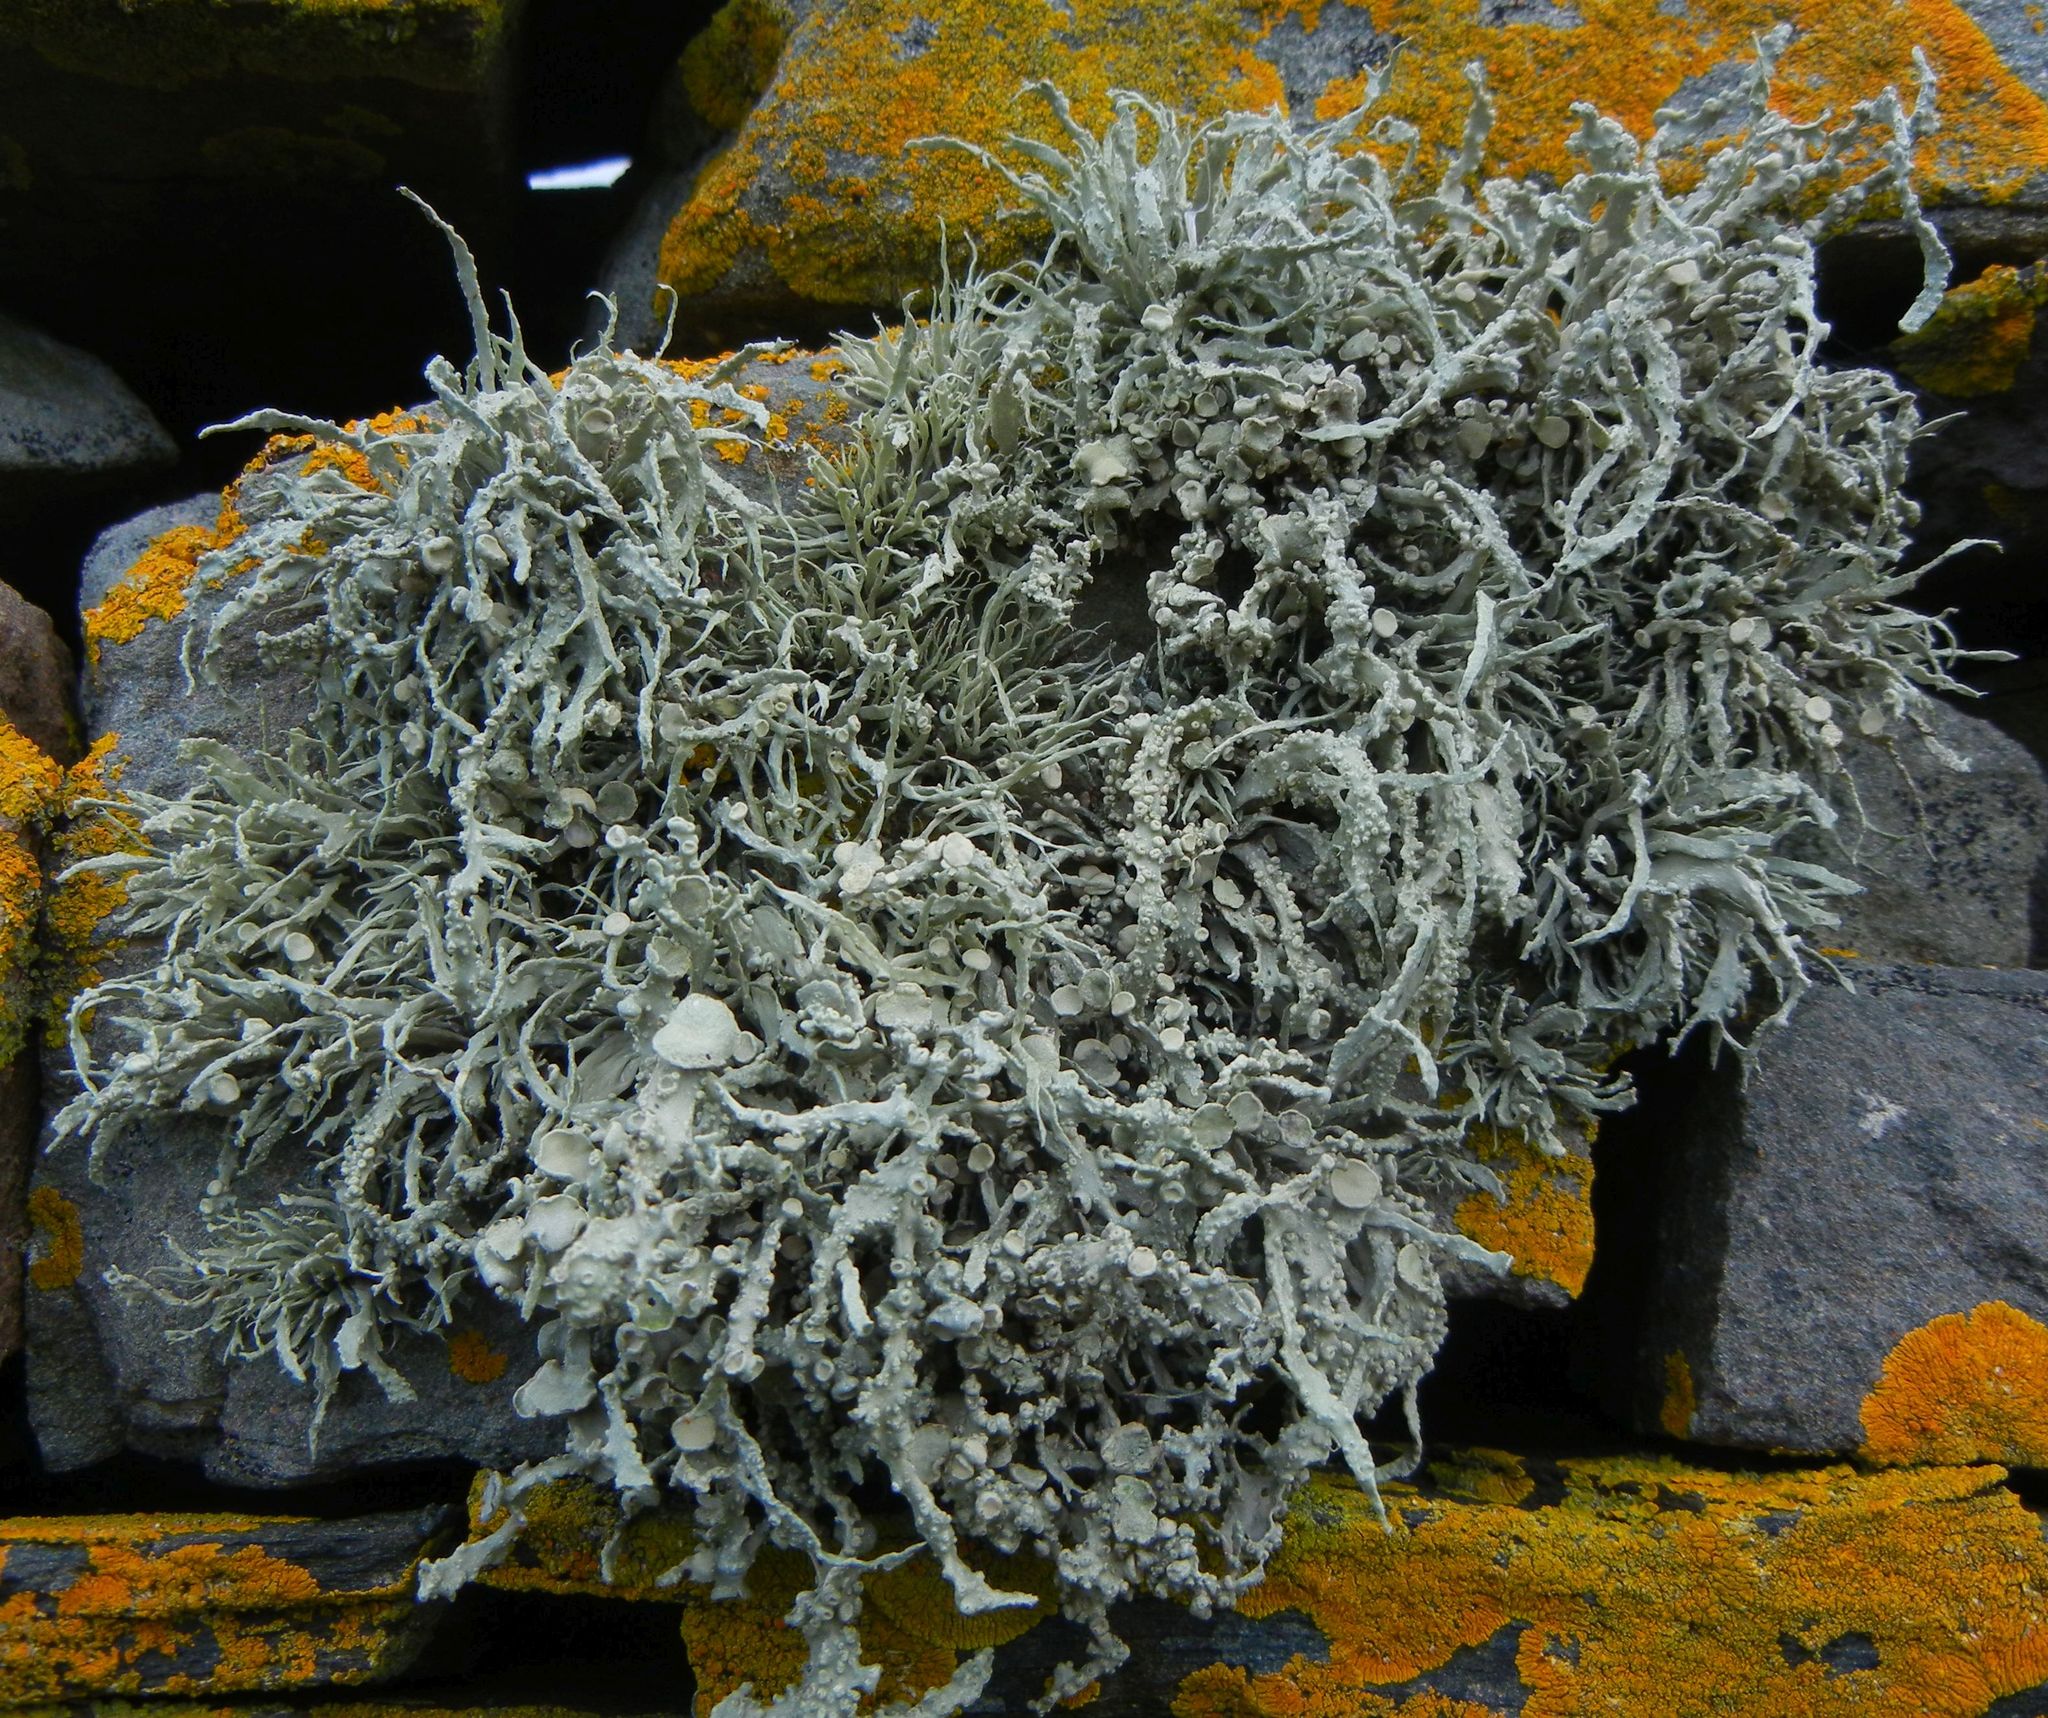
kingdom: Fungi
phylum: Ascomycota
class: Lecanoromycetes
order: Lecanorales
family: Ramalinaceae
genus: Ramalina
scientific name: Ramalina siliquosa
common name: Sea ivory
